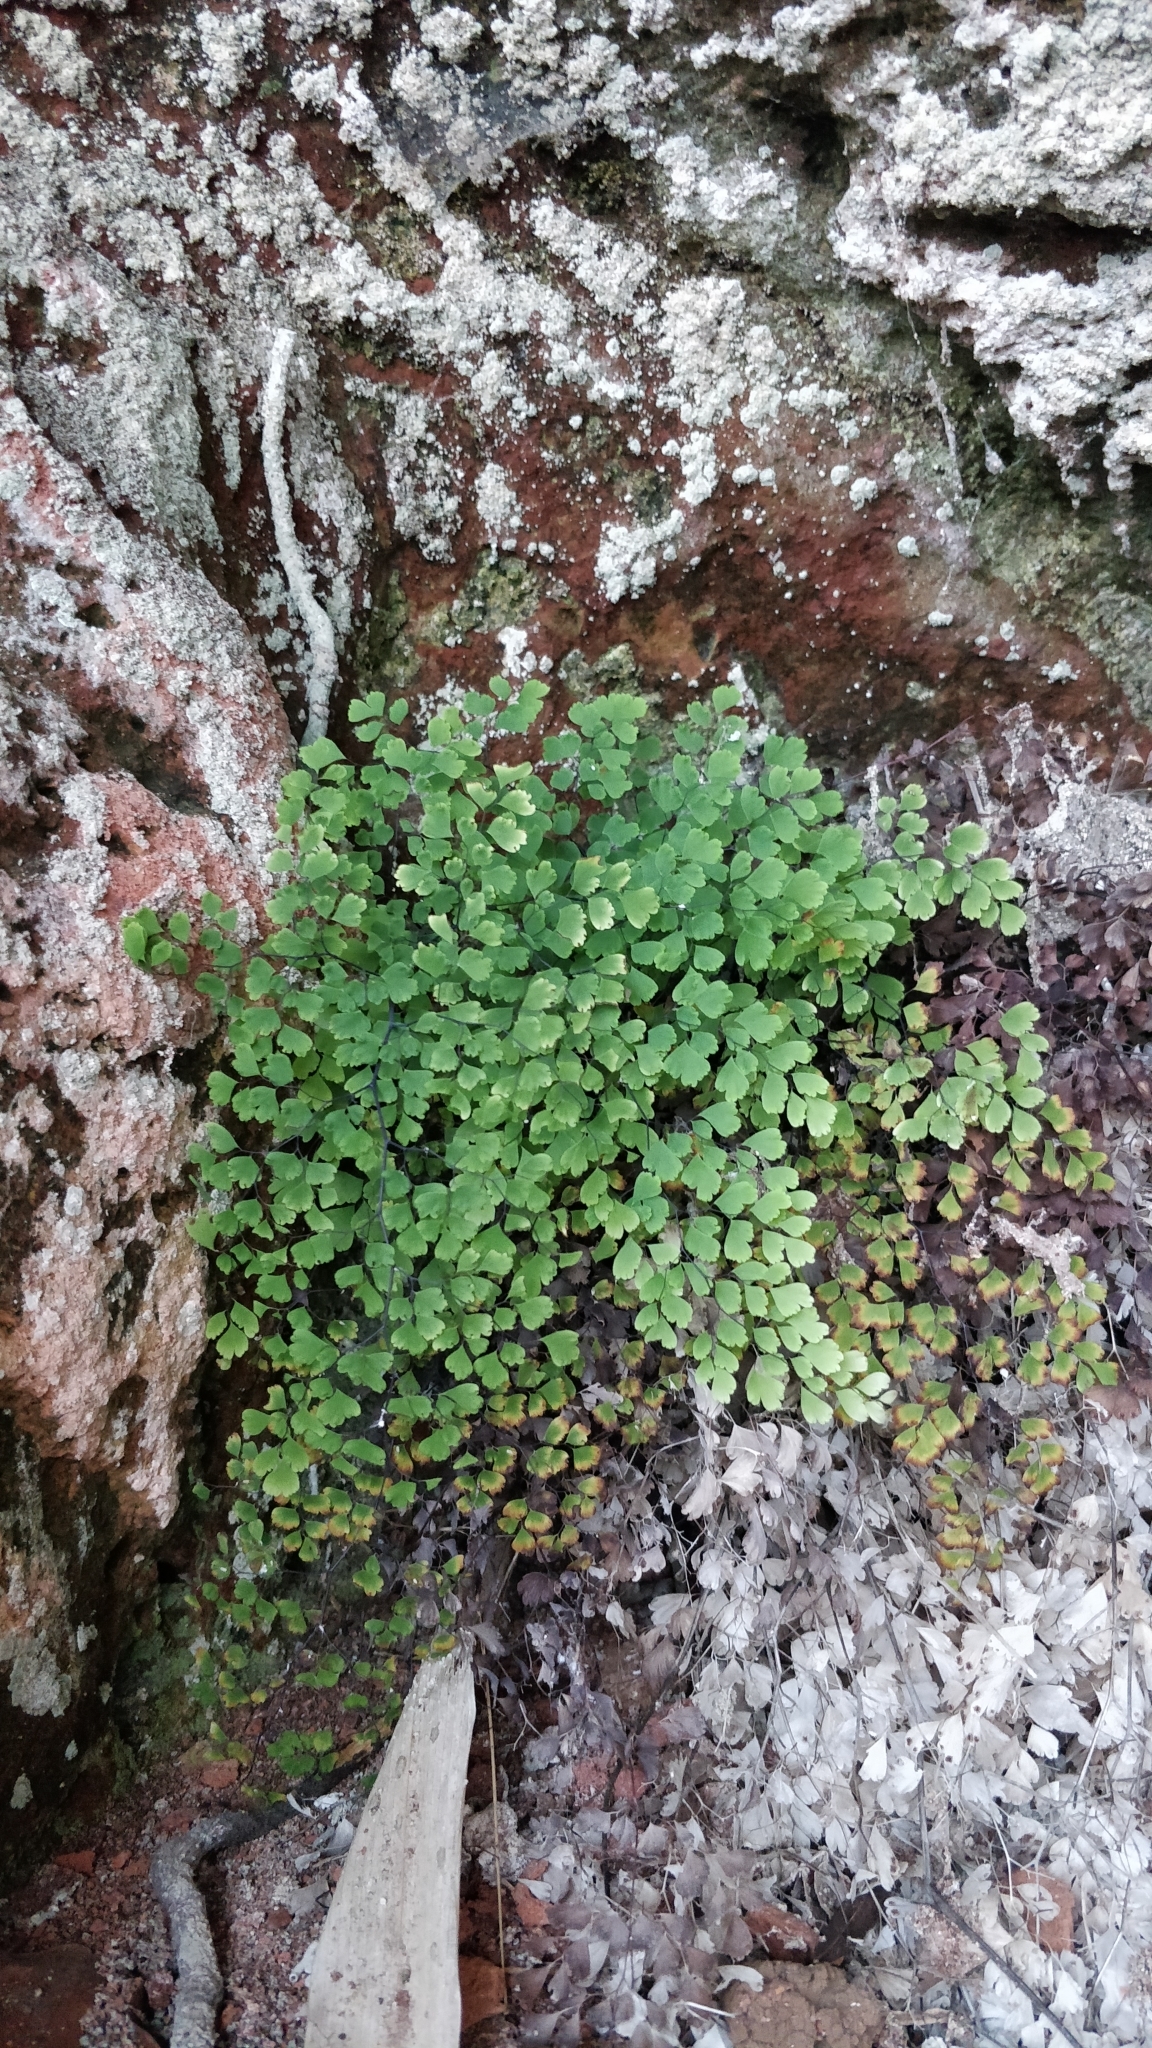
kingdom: Plantae
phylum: Tracheophyta
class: Polypodiopsida
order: Polypodiales
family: Pteridaceae
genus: Adiantum
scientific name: Adiantum raddianum
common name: Delta maidenhair fern
